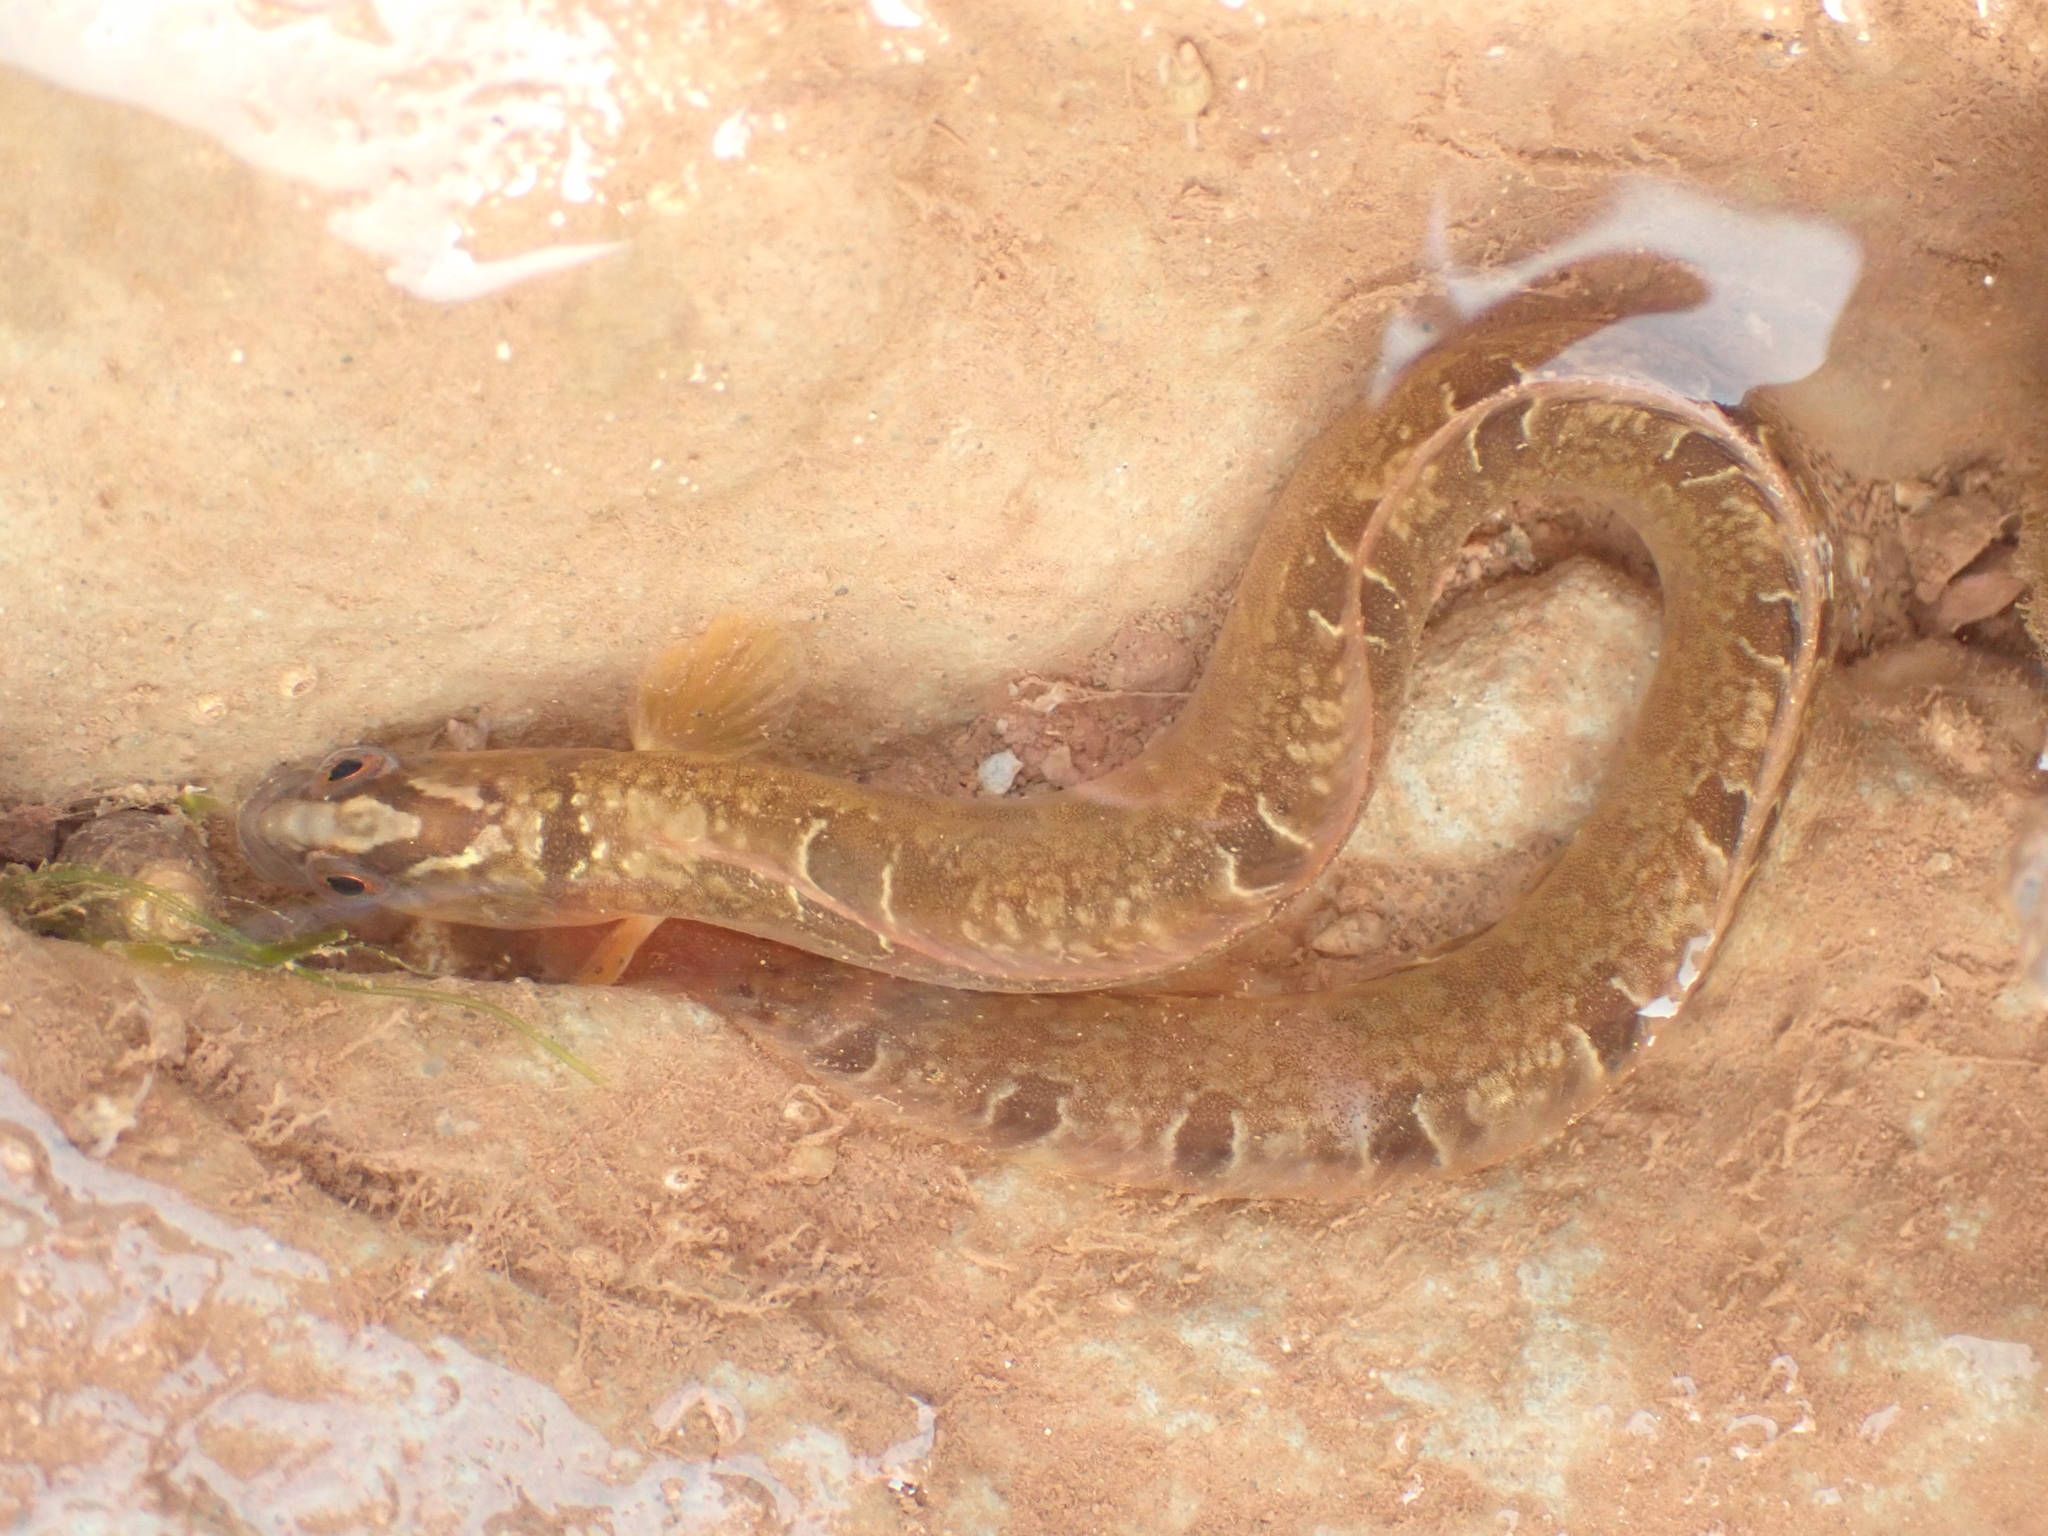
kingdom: Animalia
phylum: Chordata
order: Perciformes
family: Pholidae
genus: Pholis
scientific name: Pholis gunnellus
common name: Butterfish
